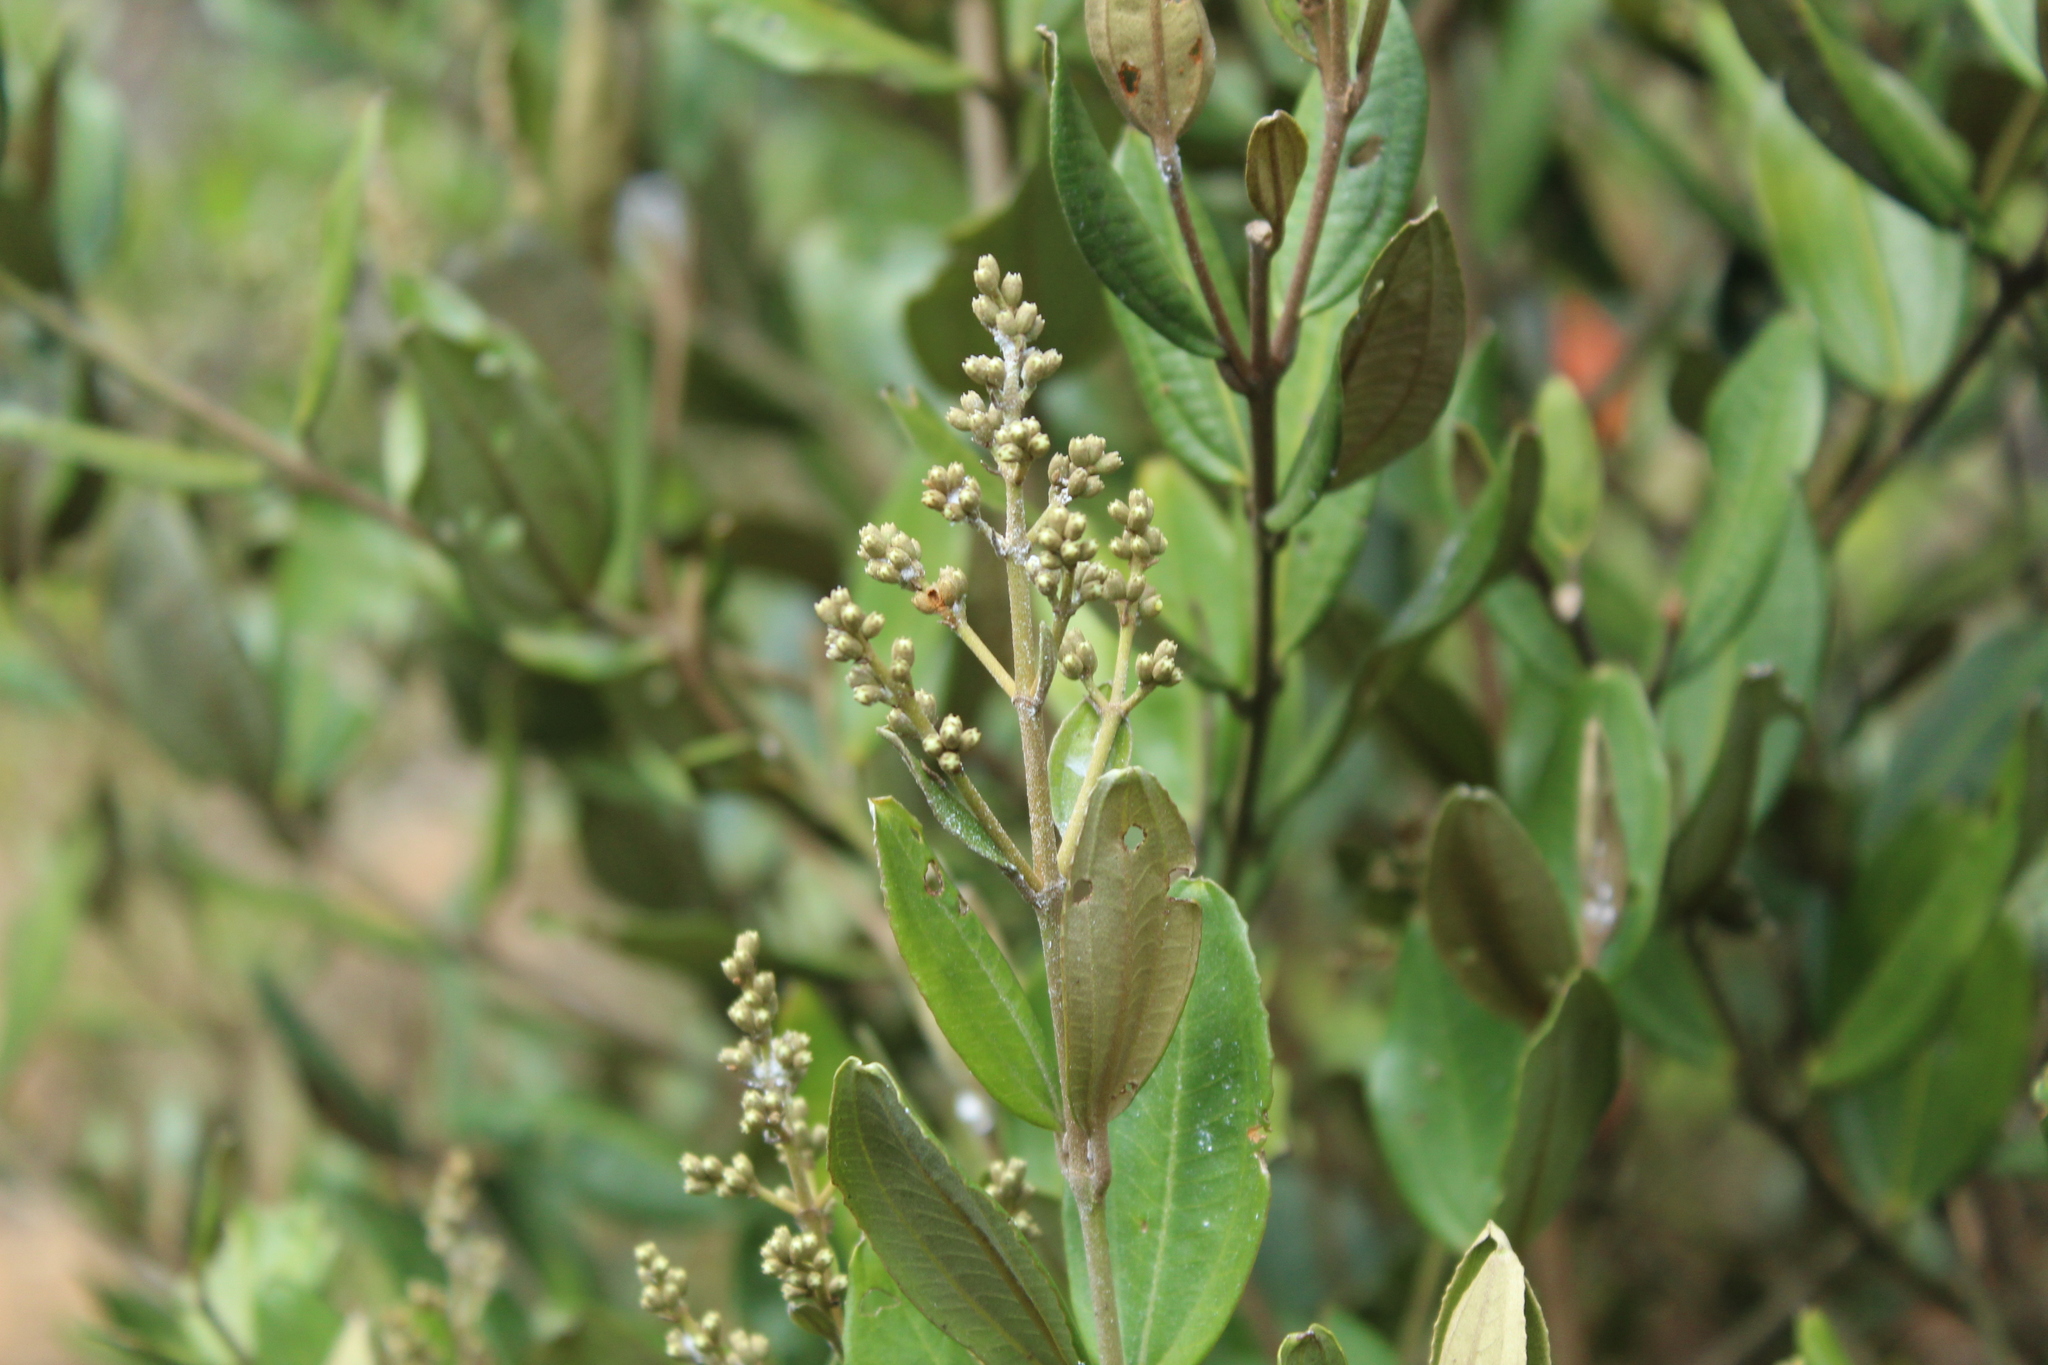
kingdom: Plantae
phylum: Tracheophyta
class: Magnoliopsida
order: Myrtales
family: Melastomataceae
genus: Miconia
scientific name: Miconia squamulosa
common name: Squamulose maya
